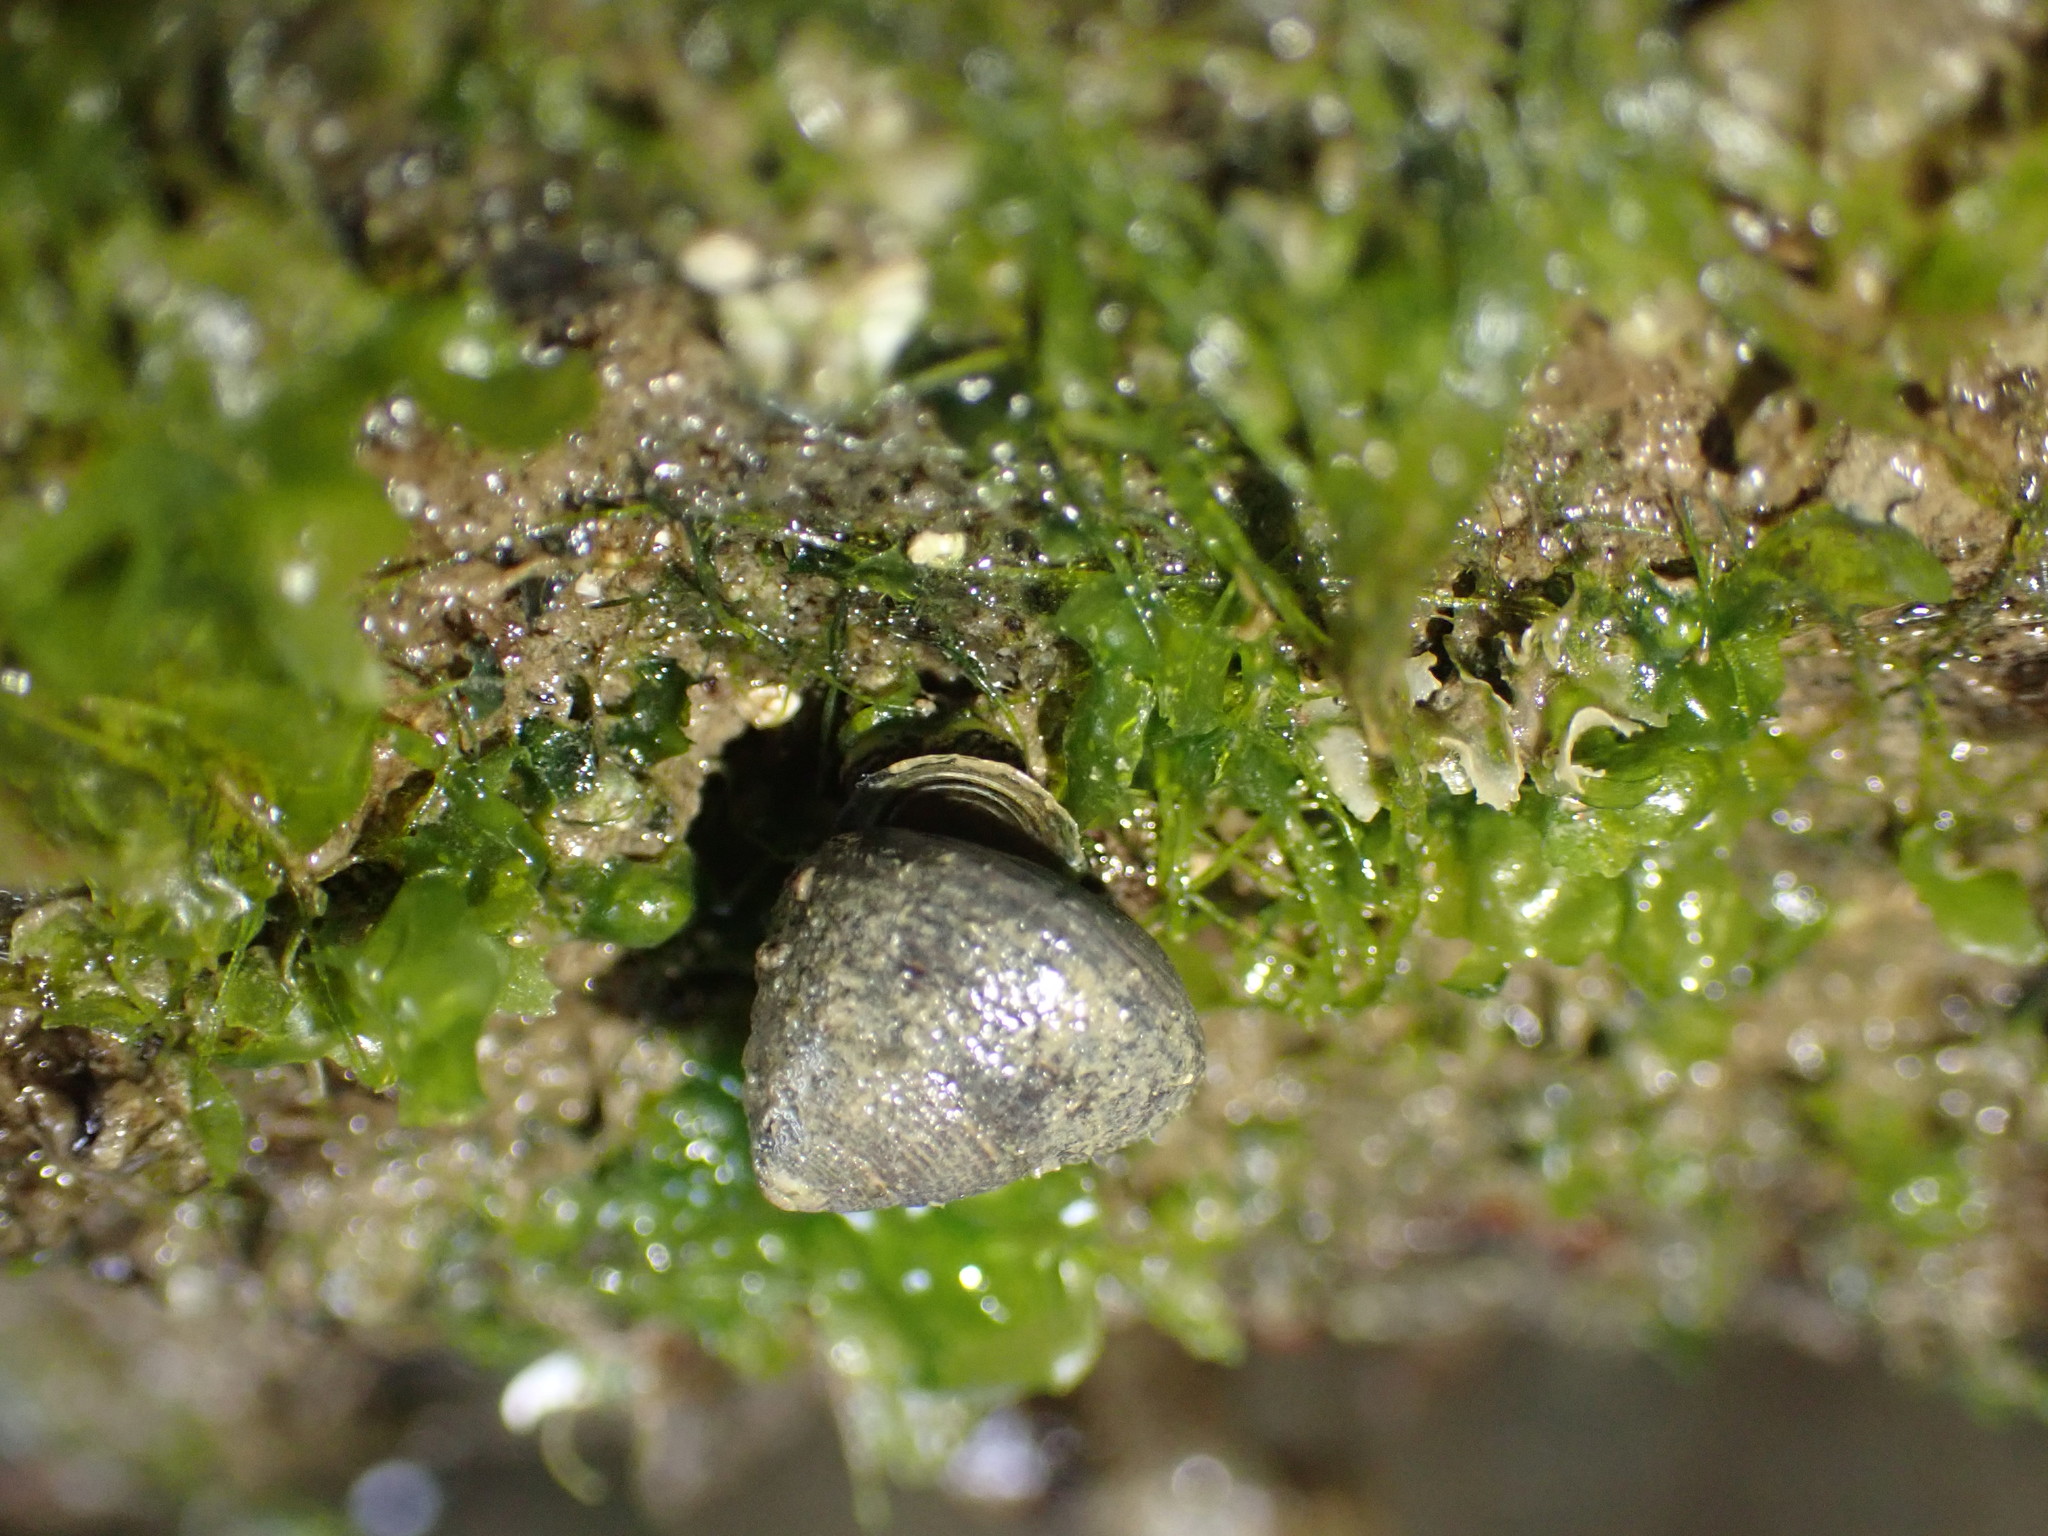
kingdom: Animalia
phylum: Mollusca
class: Gastropoda
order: Trochida
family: Trochidae
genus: Micrelenchus
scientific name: Micrelenchus huttonii
